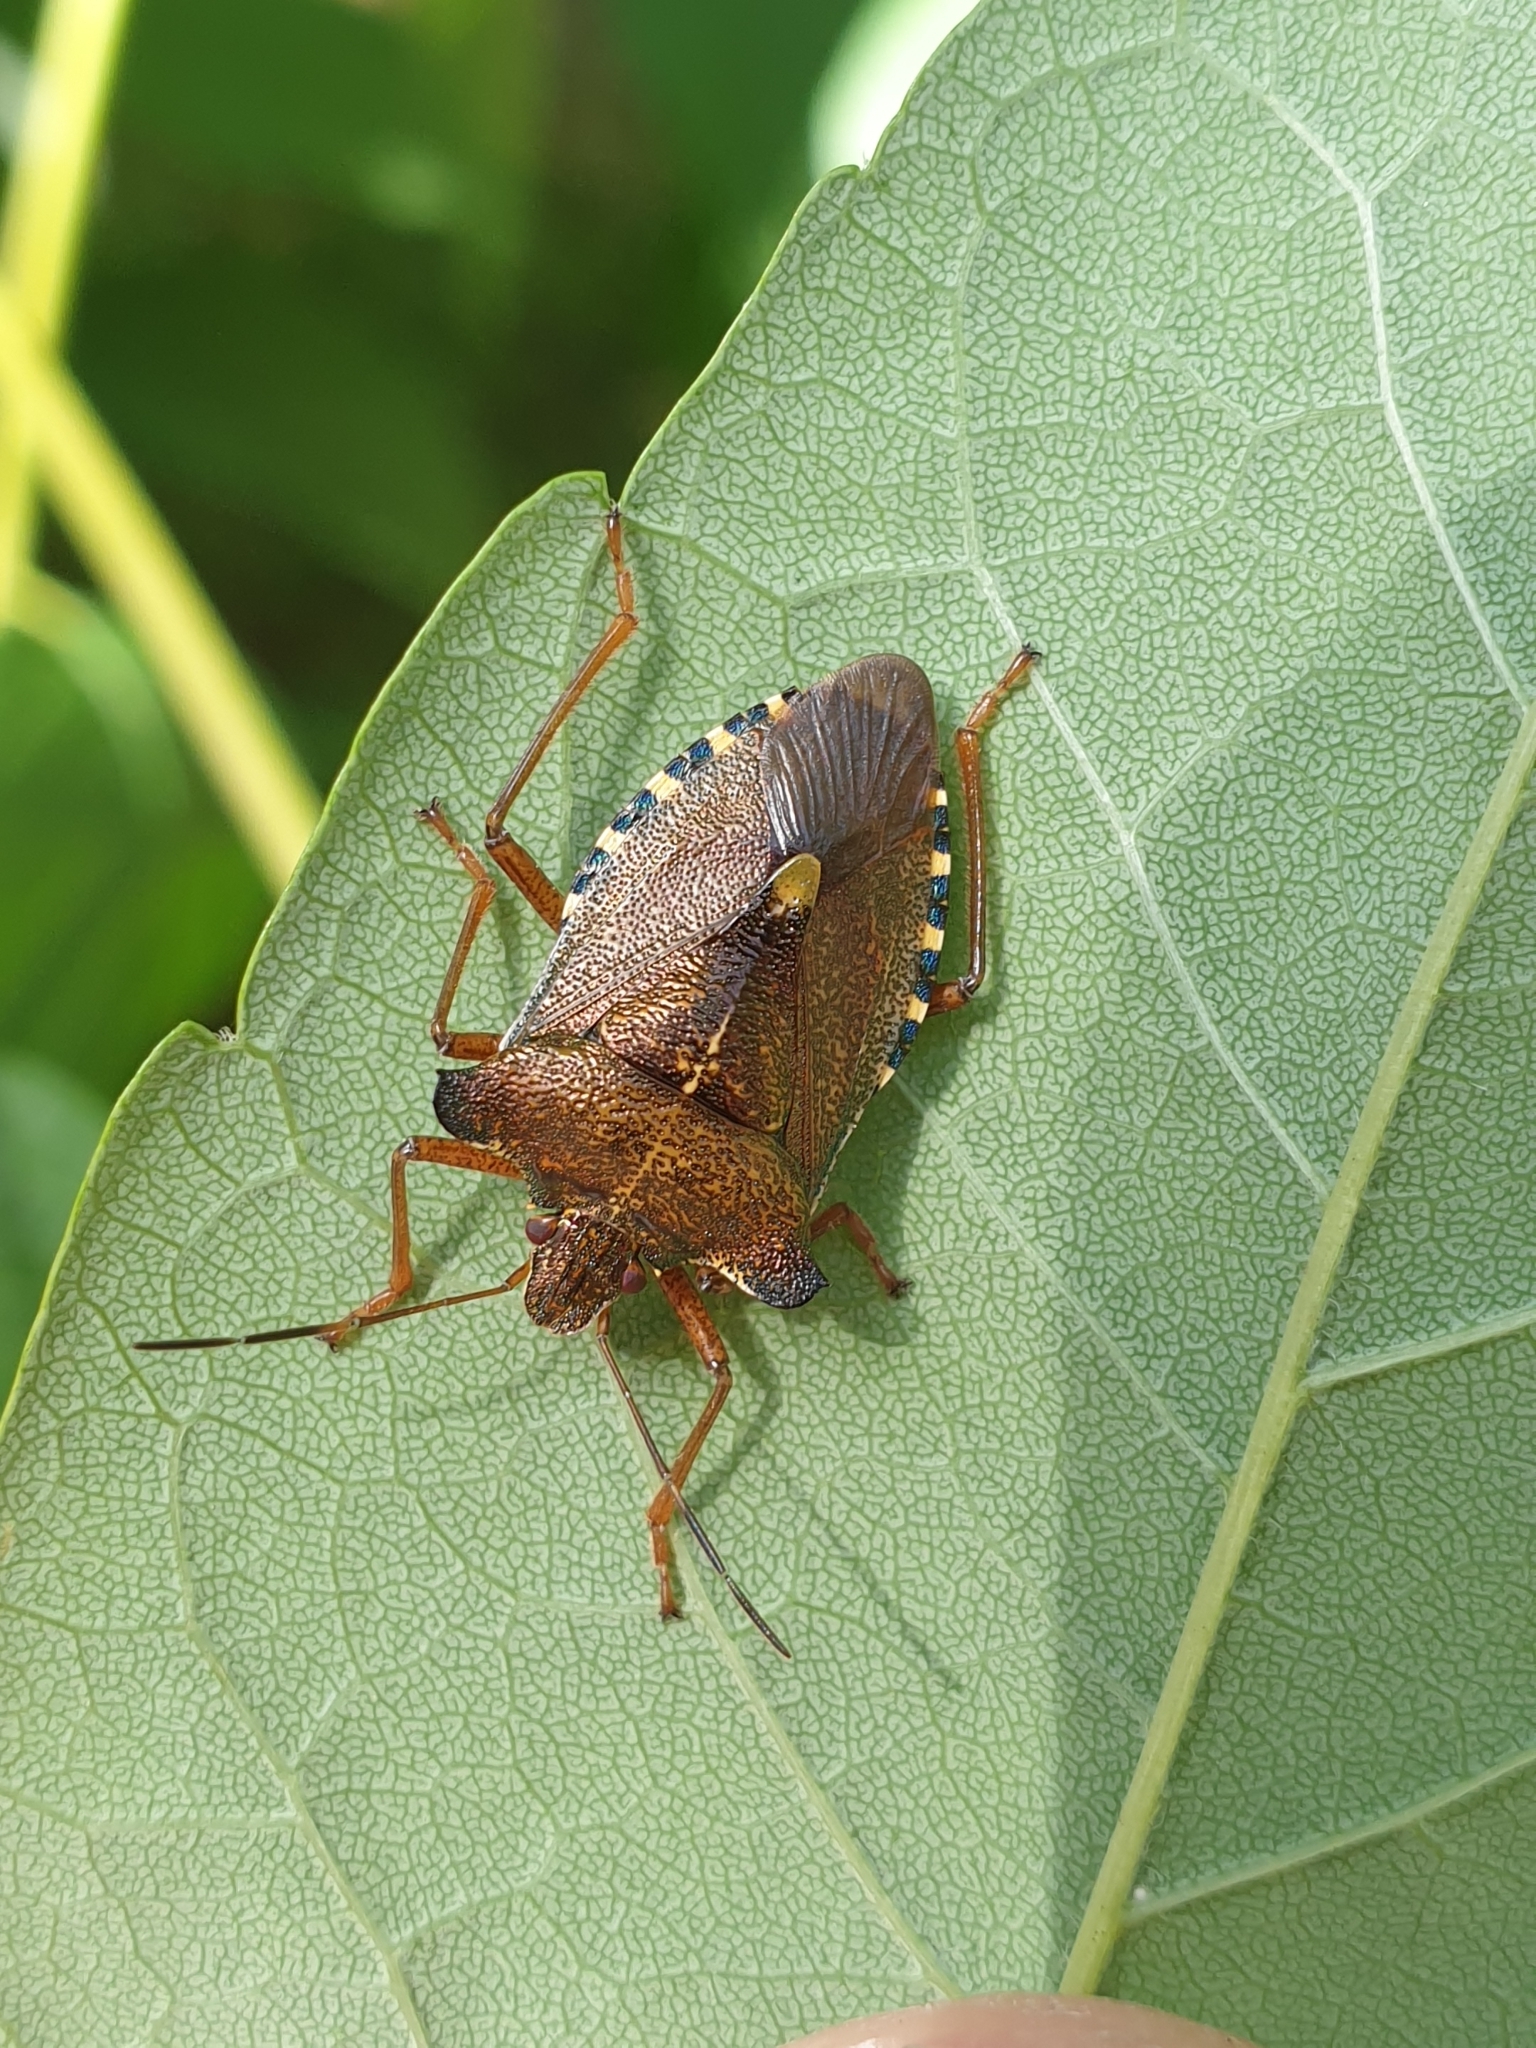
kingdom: Animalia
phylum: Arthropoda
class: Insecta
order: Hemiptera
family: Pentatomidae
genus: Pentatoma
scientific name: Pentatoma rufipes
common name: Forest bug
